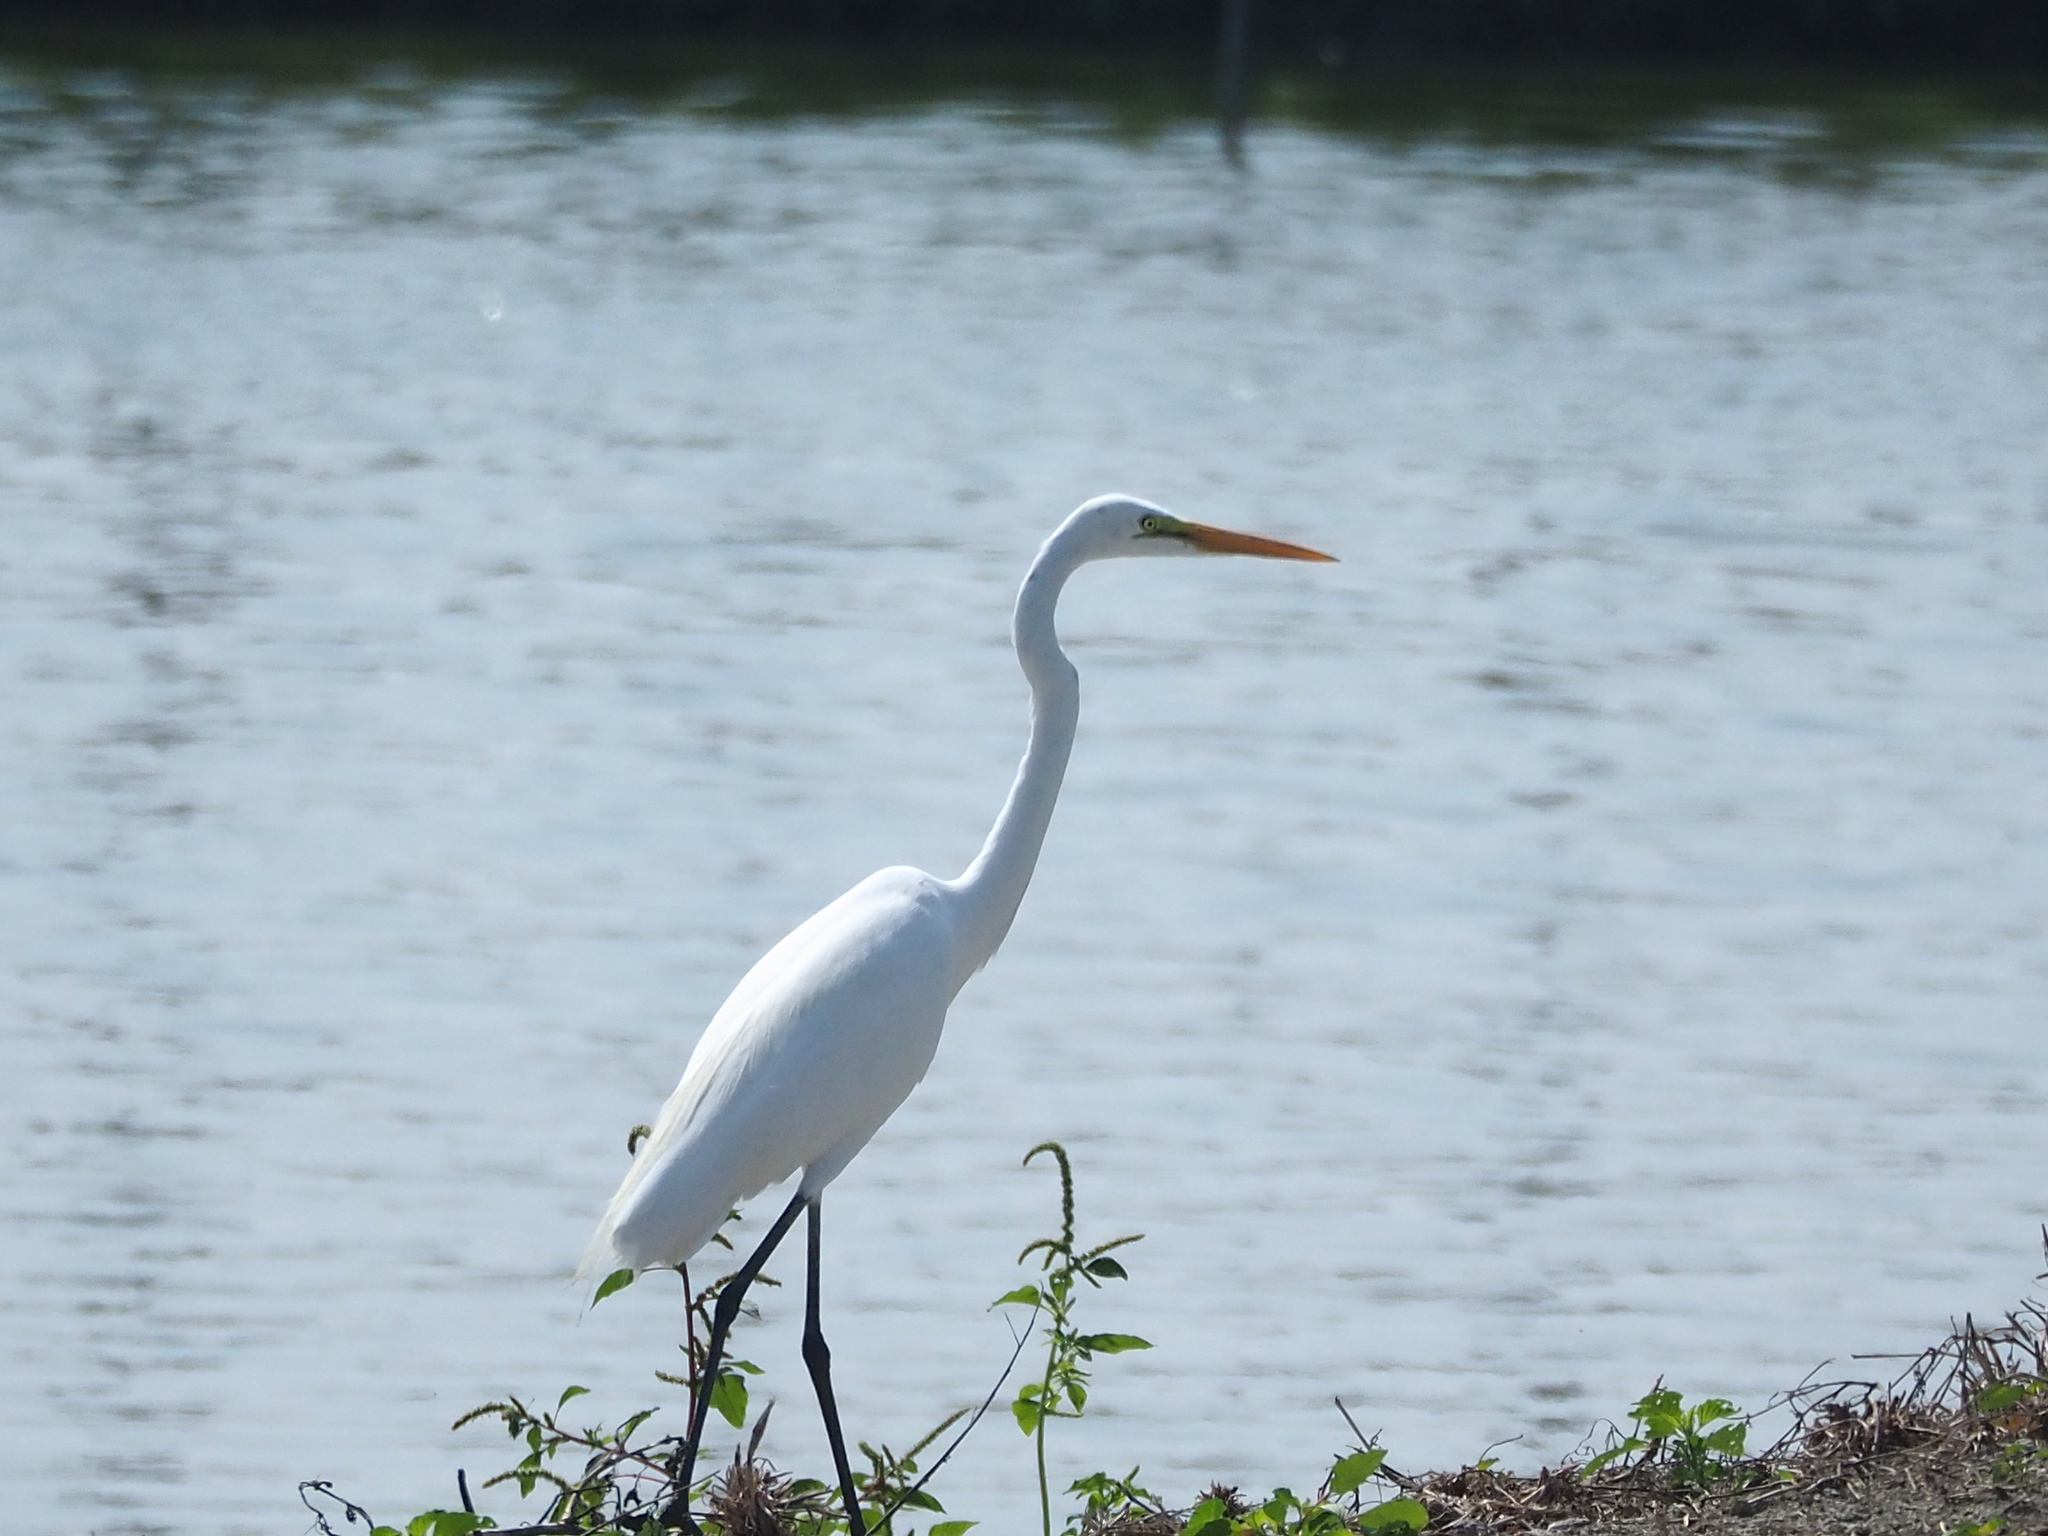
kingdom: Animalia
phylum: Chordata
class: Aves
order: Pelecaniformes
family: Ardeidae
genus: Ardea
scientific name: Ardea alba
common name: Great egret
